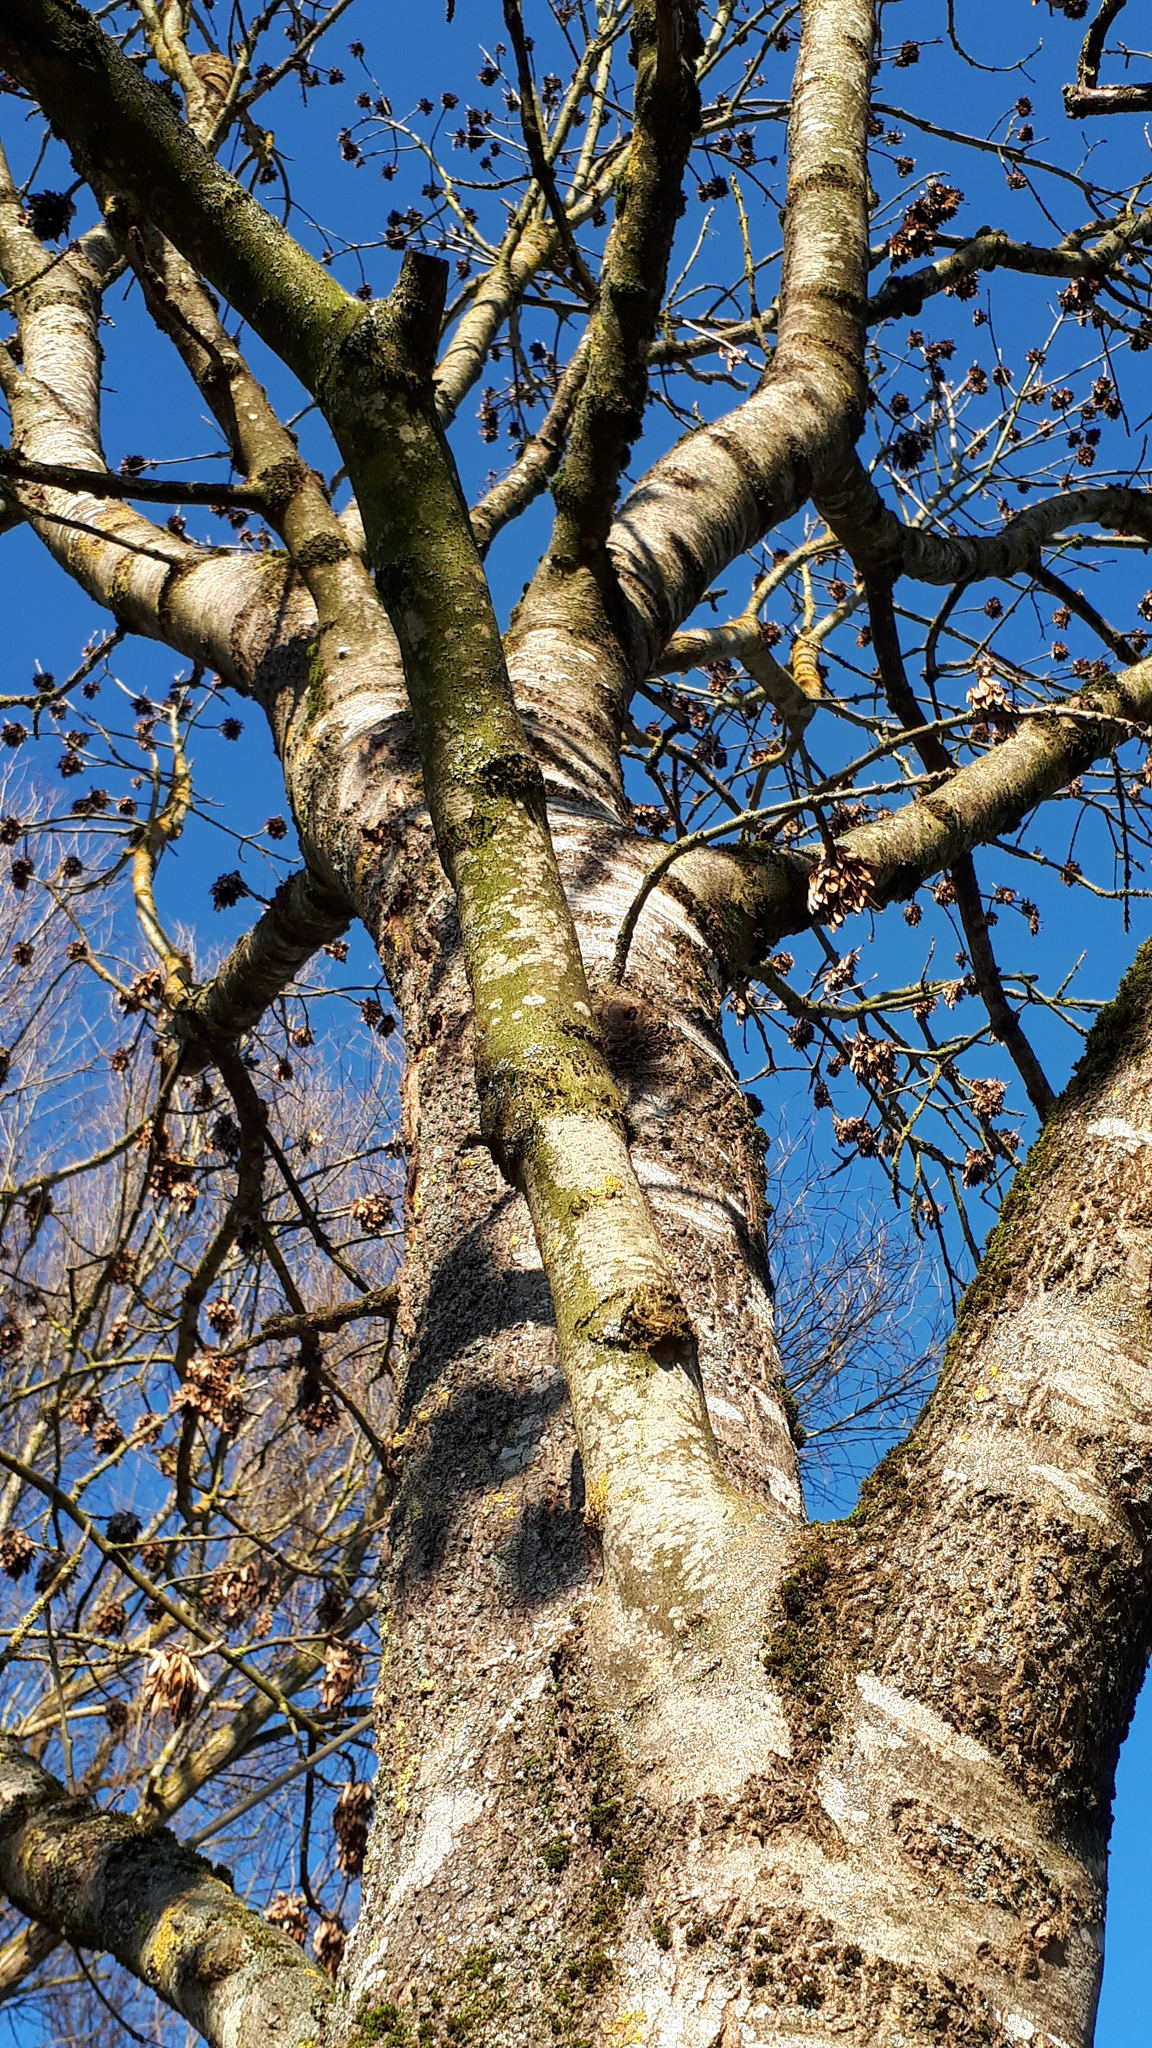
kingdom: Plantae
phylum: Tracheophyta
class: Magnoliopsida
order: Lamiales
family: Oleaceae
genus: Fraxinus
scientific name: Fraxinus excelsior
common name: European ash
